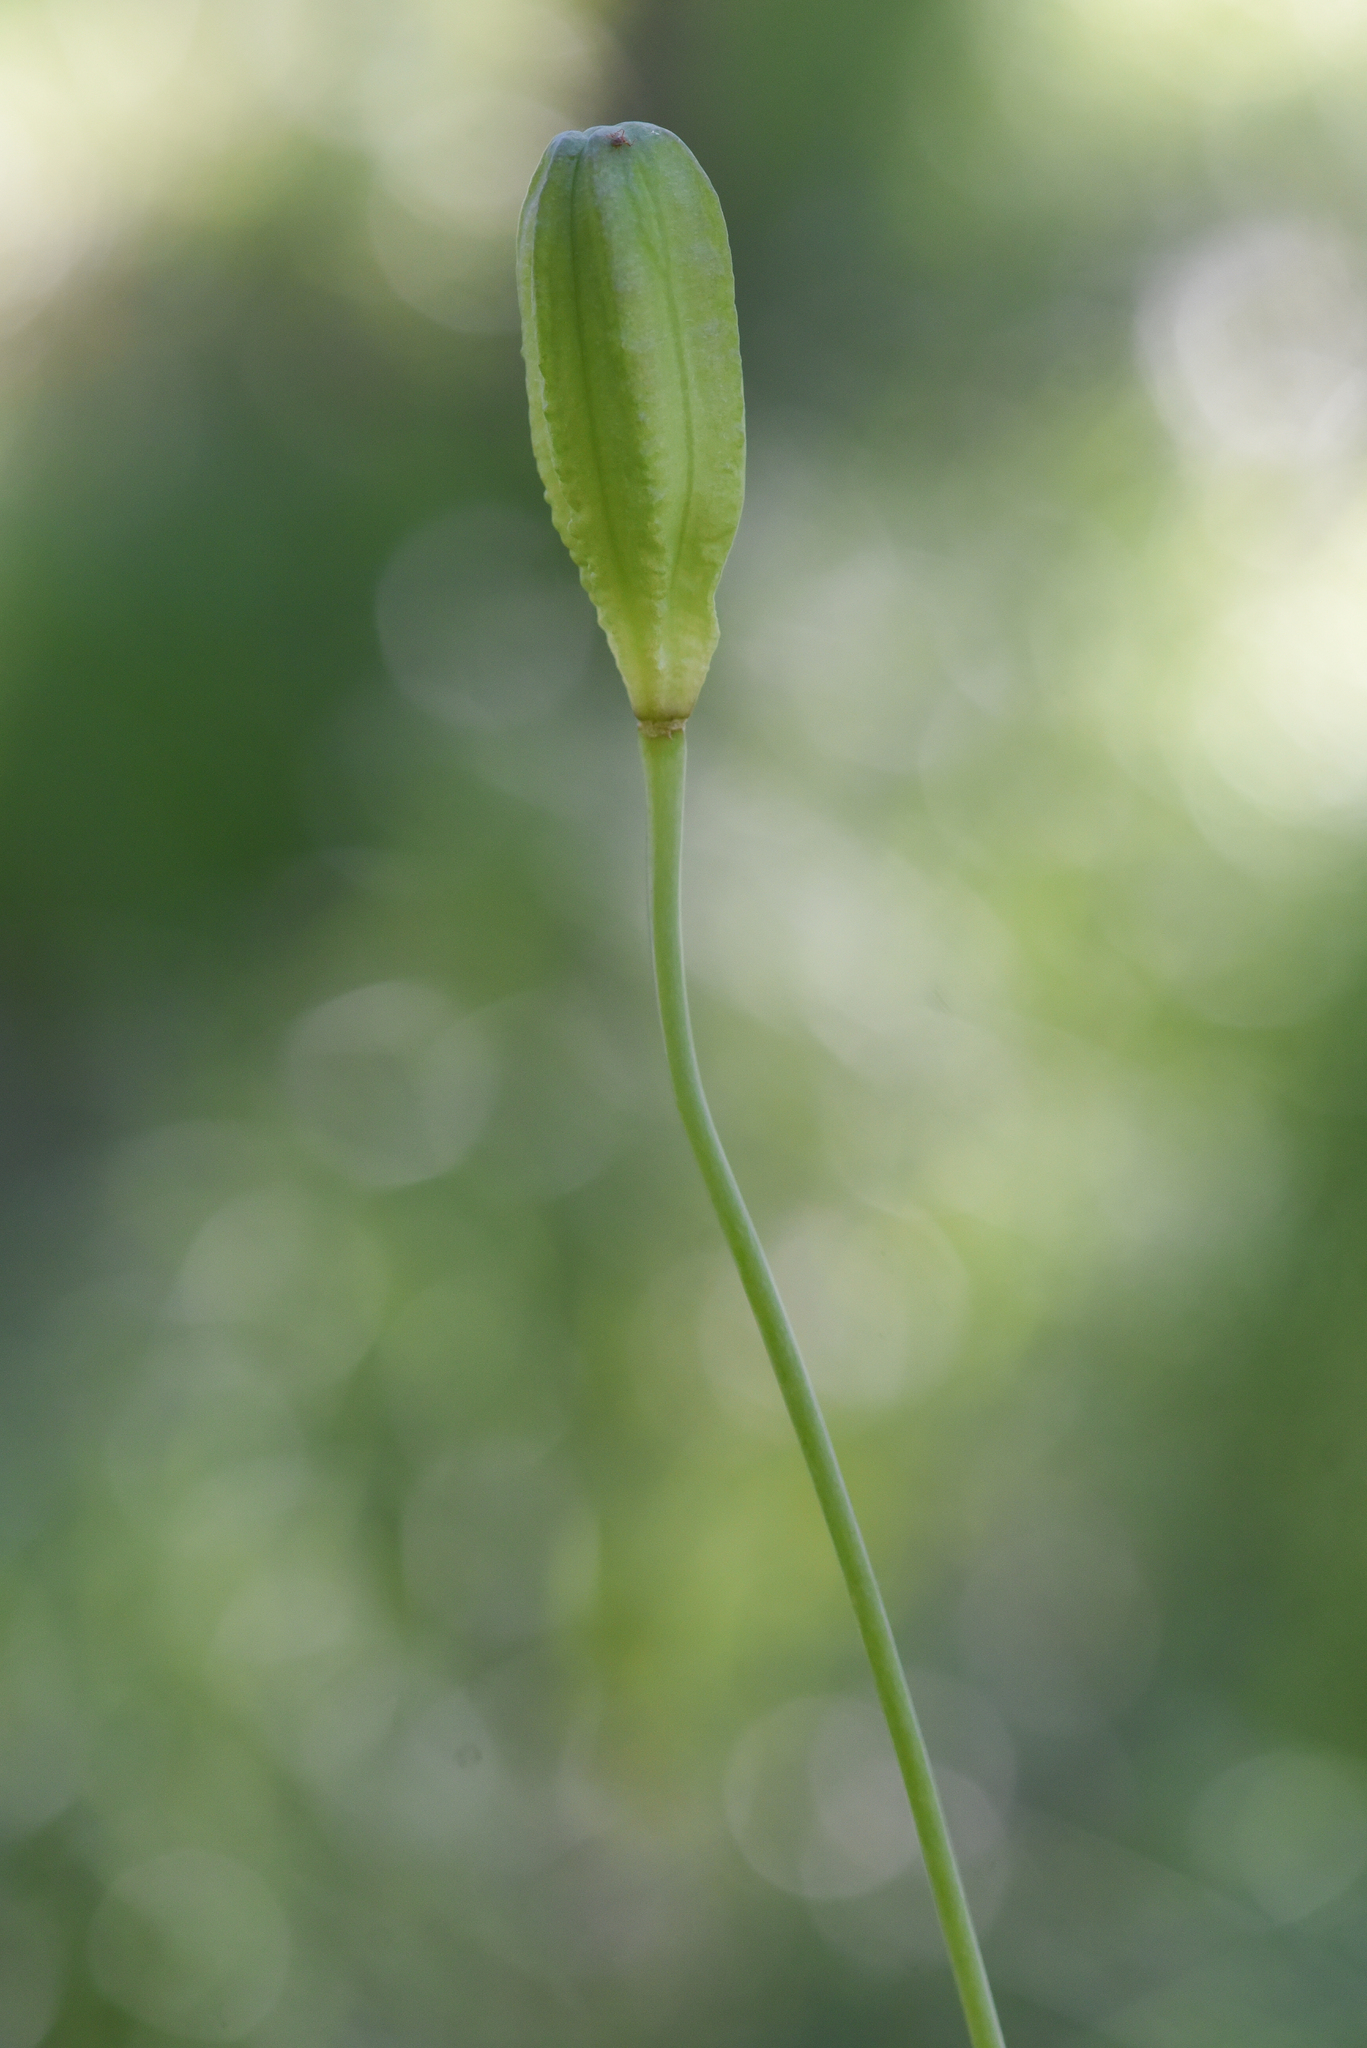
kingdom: Plantae
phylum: Tracheophyta
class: Liliopsida
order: Liliales
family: Liliaceae
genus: Lilium
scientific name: Lilium columbianum
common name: Columbia lily
